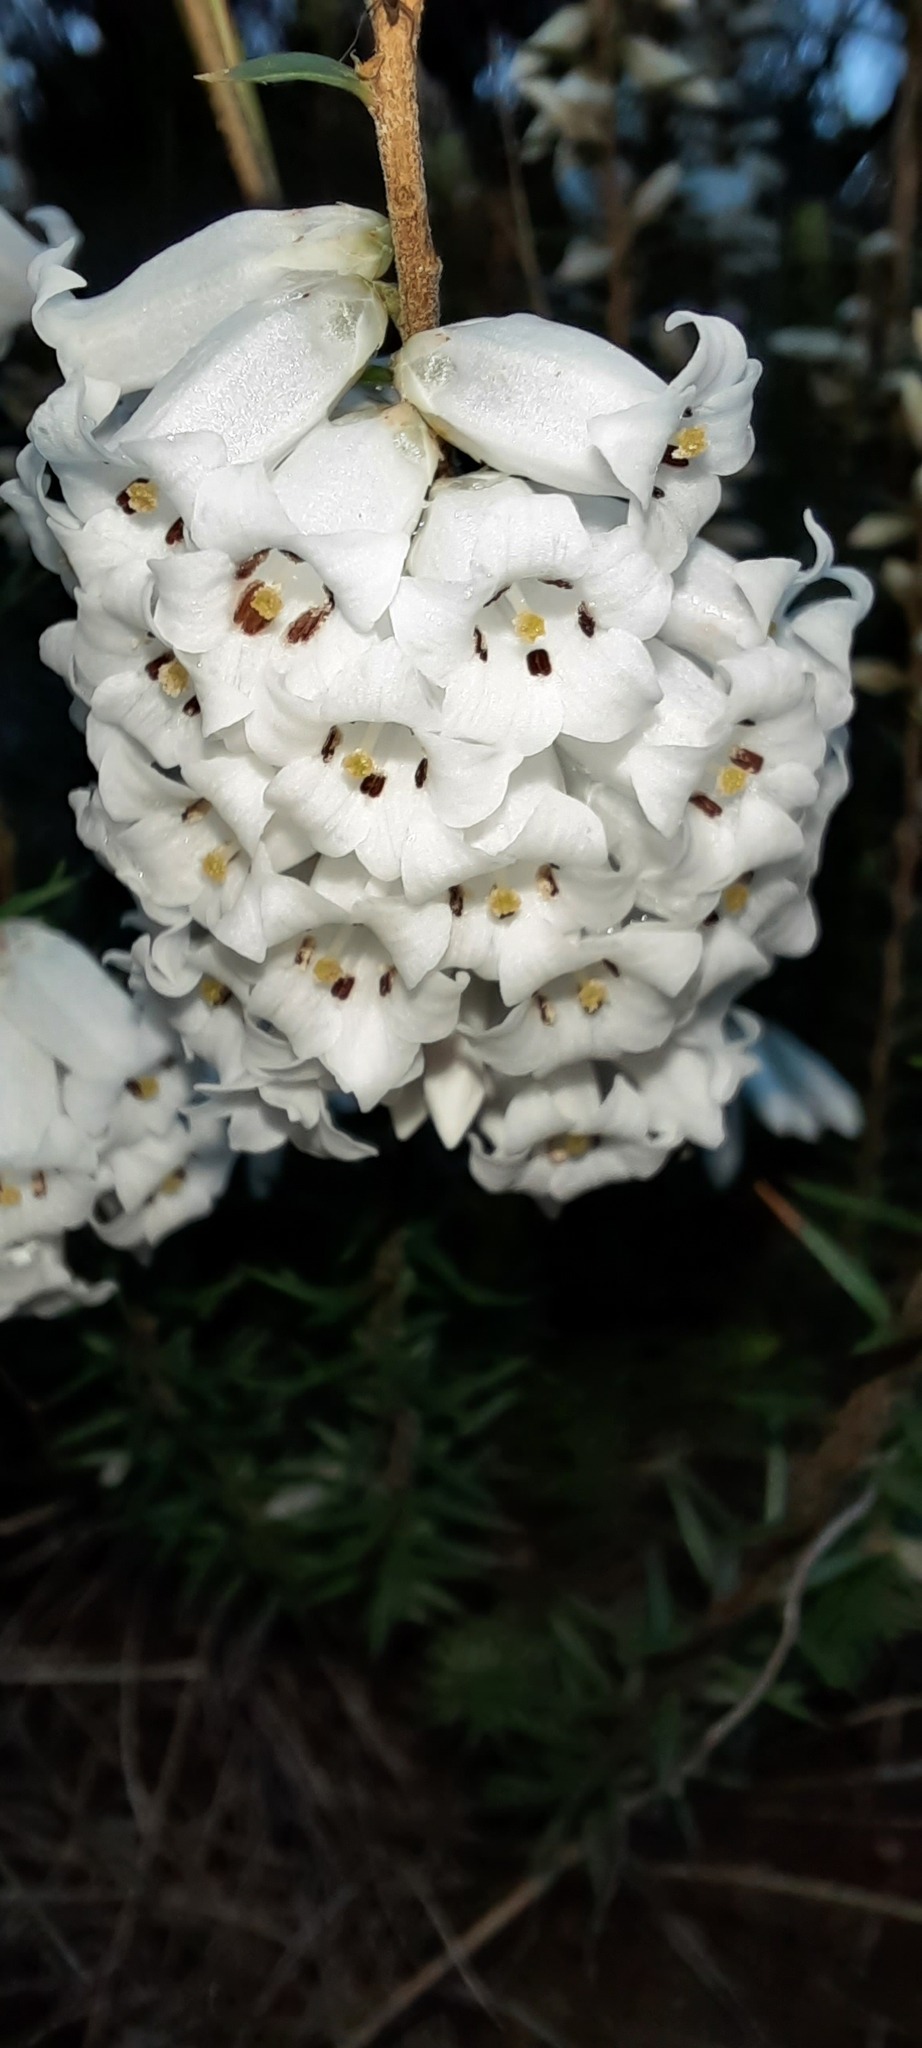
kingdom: Plantae
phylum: Tracheophyta
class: Magnoliopsida
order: Ericales
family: Ericaceae
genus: Epacris
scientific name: Epacris impressa
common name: Common-heath
